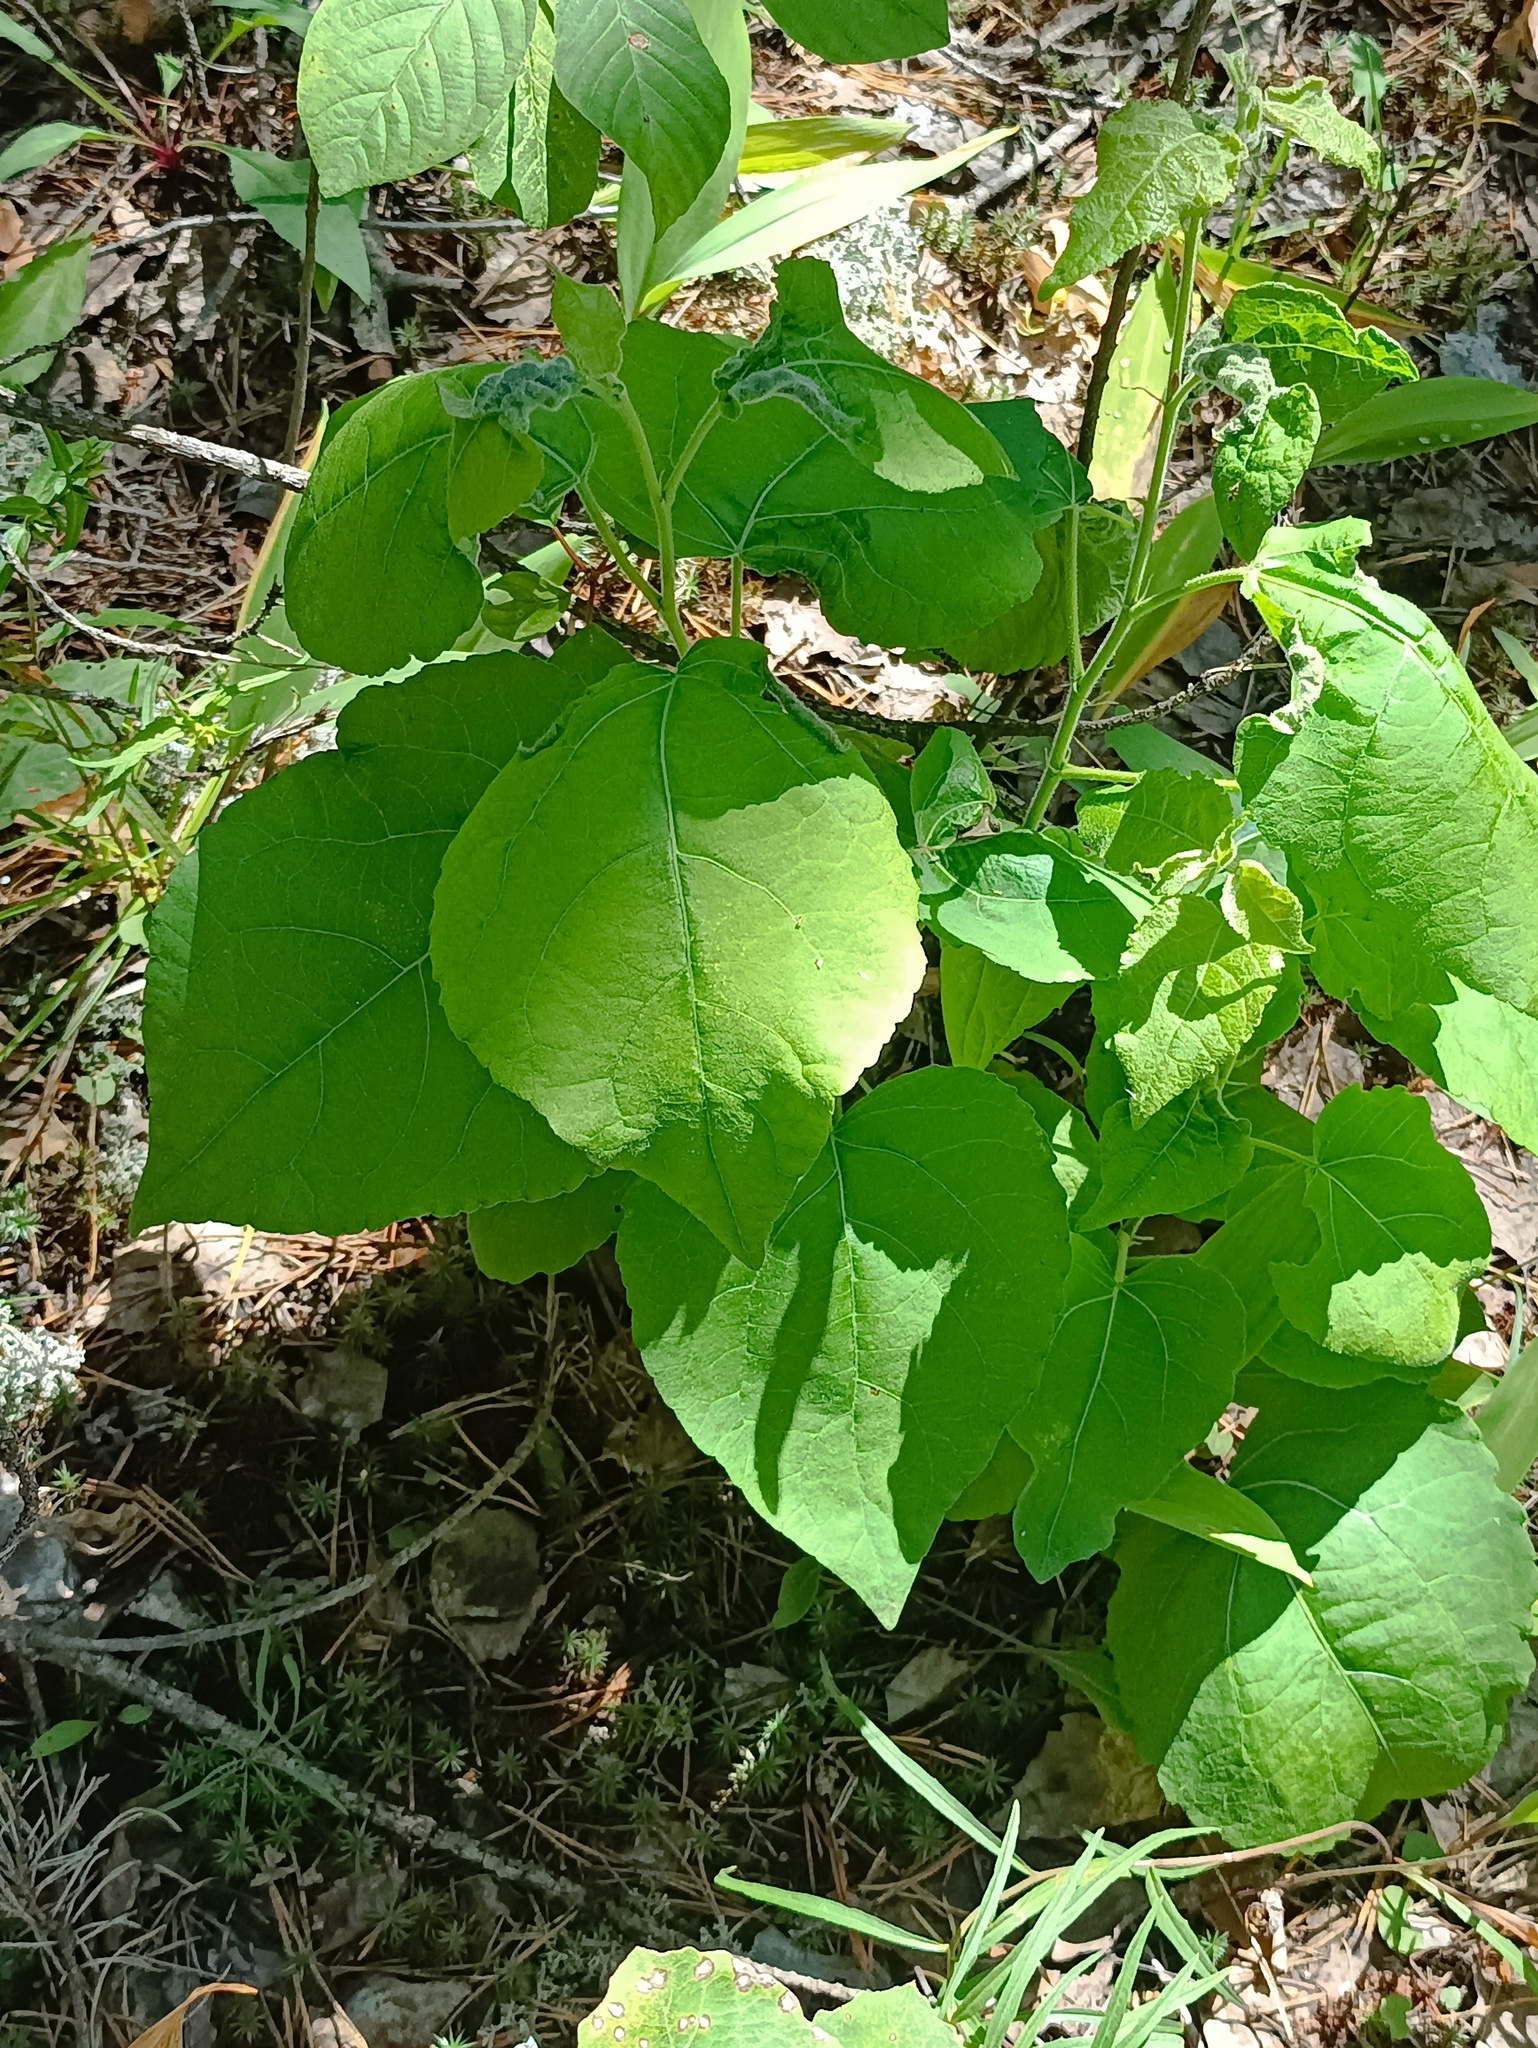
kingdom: Plantae
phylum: Tracheophyta
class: Magnoliopsida
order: Malpighiales
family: Salicaceae
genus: Populus
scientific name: Populus tremula
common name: European aspen
